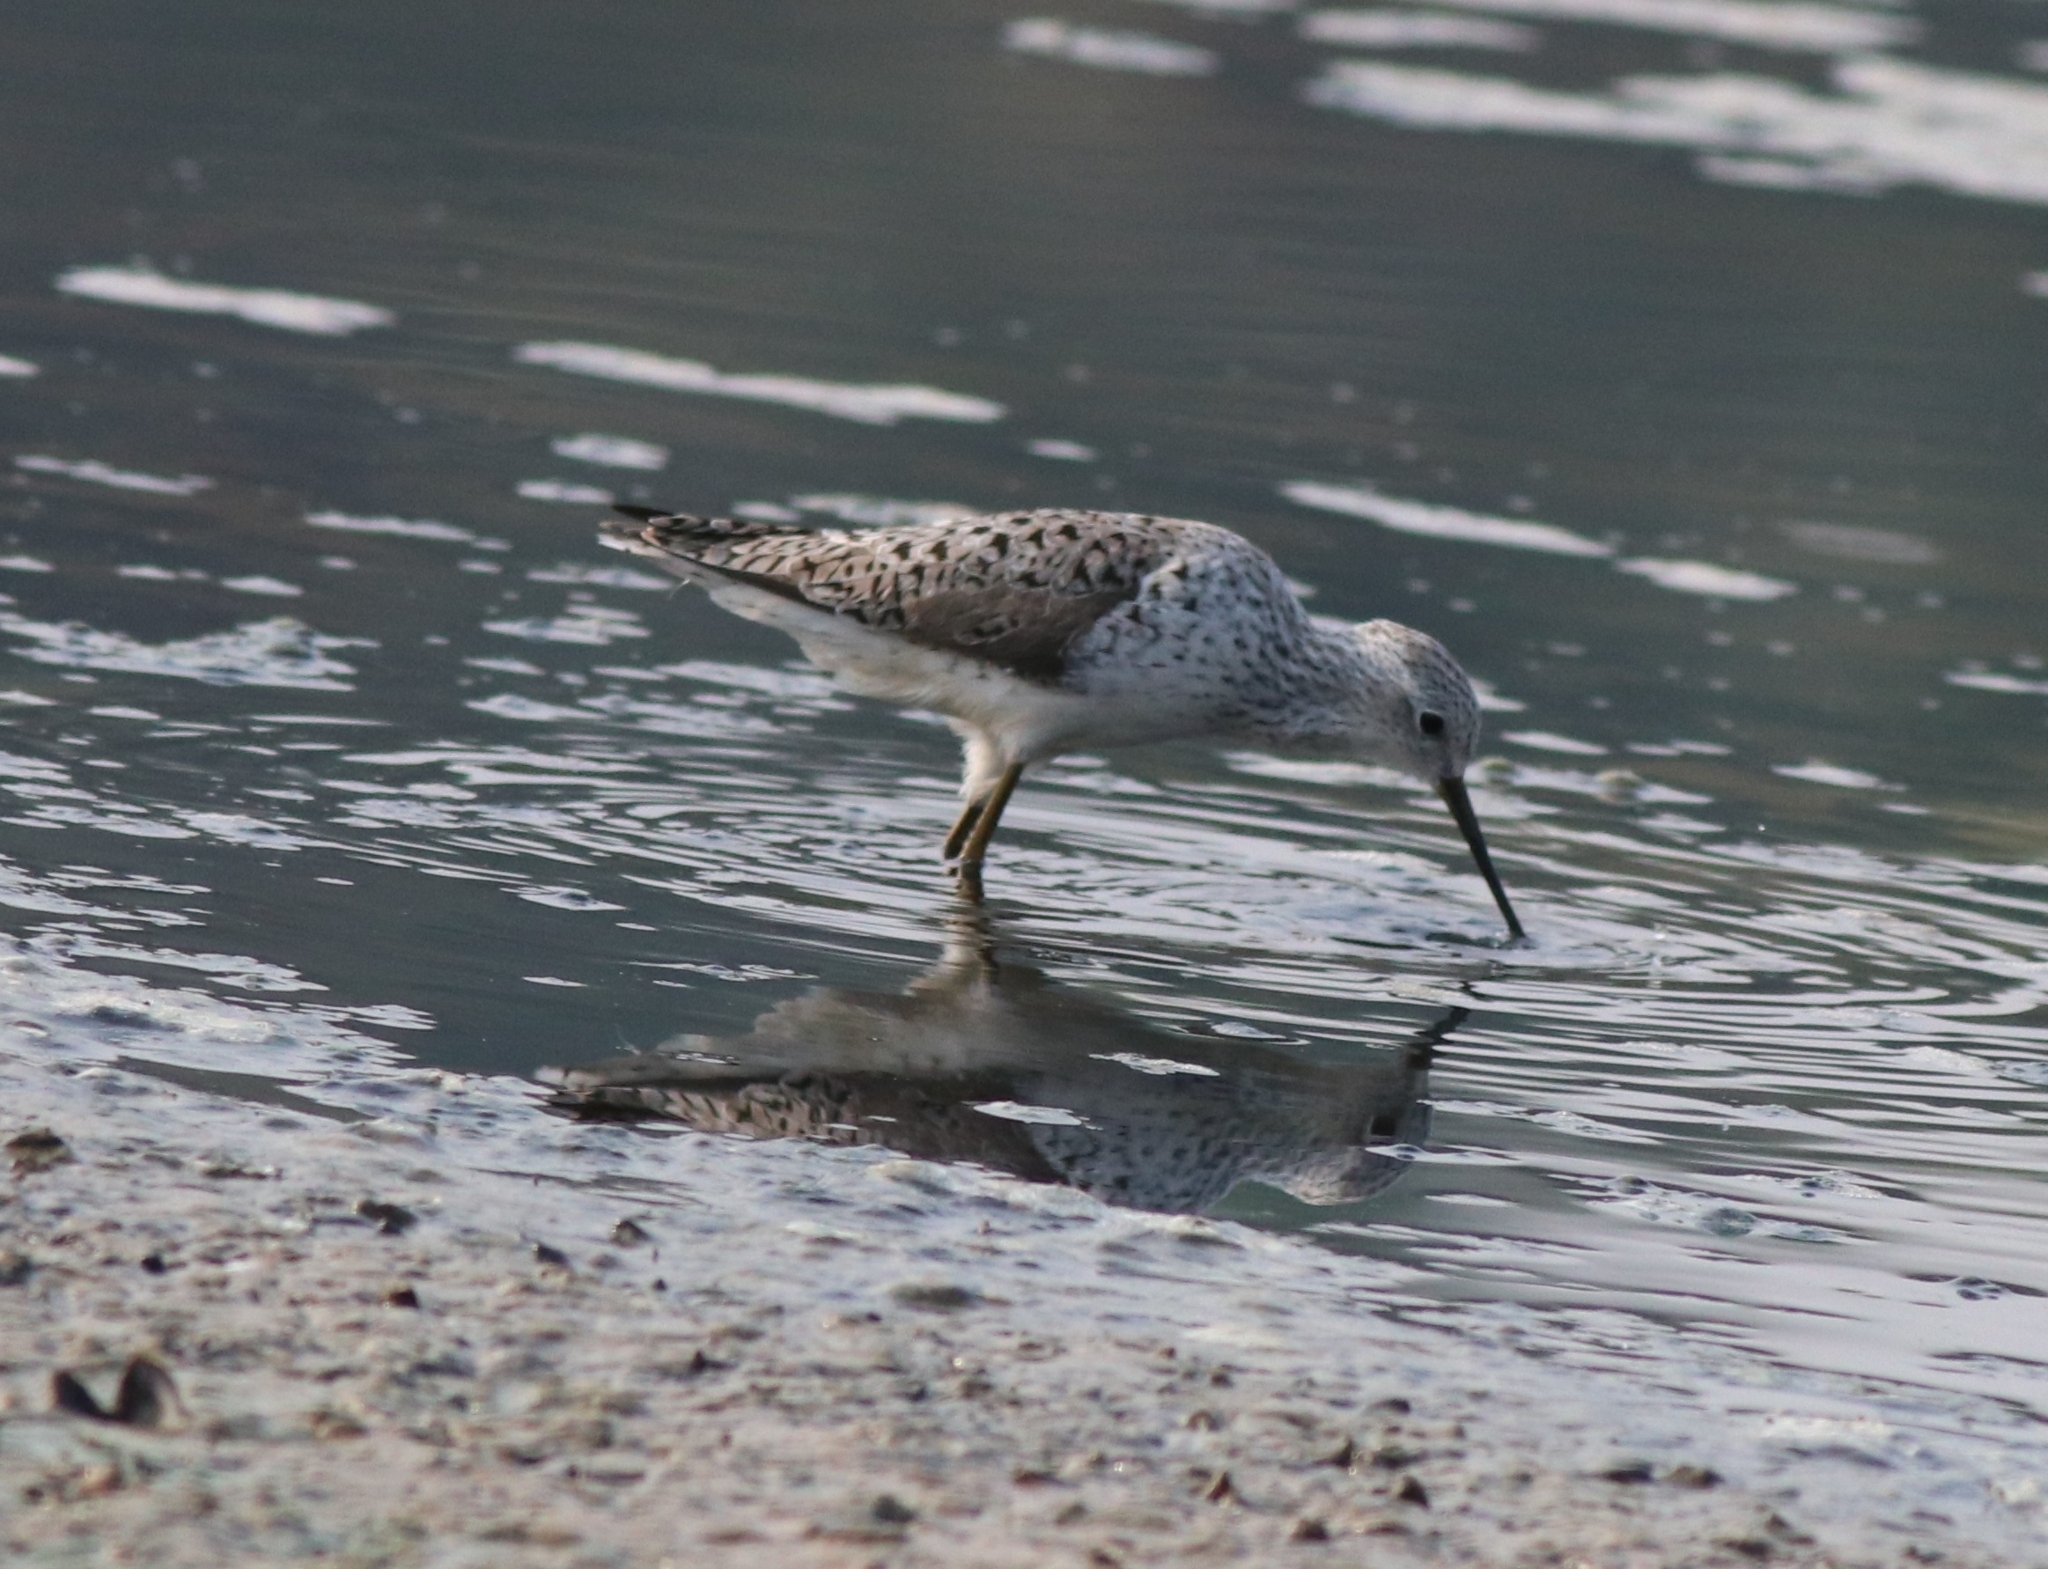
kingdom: Animalia
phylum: Chordata
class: Aves
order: Charadriiformes
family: Scolopacidae
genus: Tringa
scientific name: Tringa stagnatilis
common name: Marsh sandpiper
